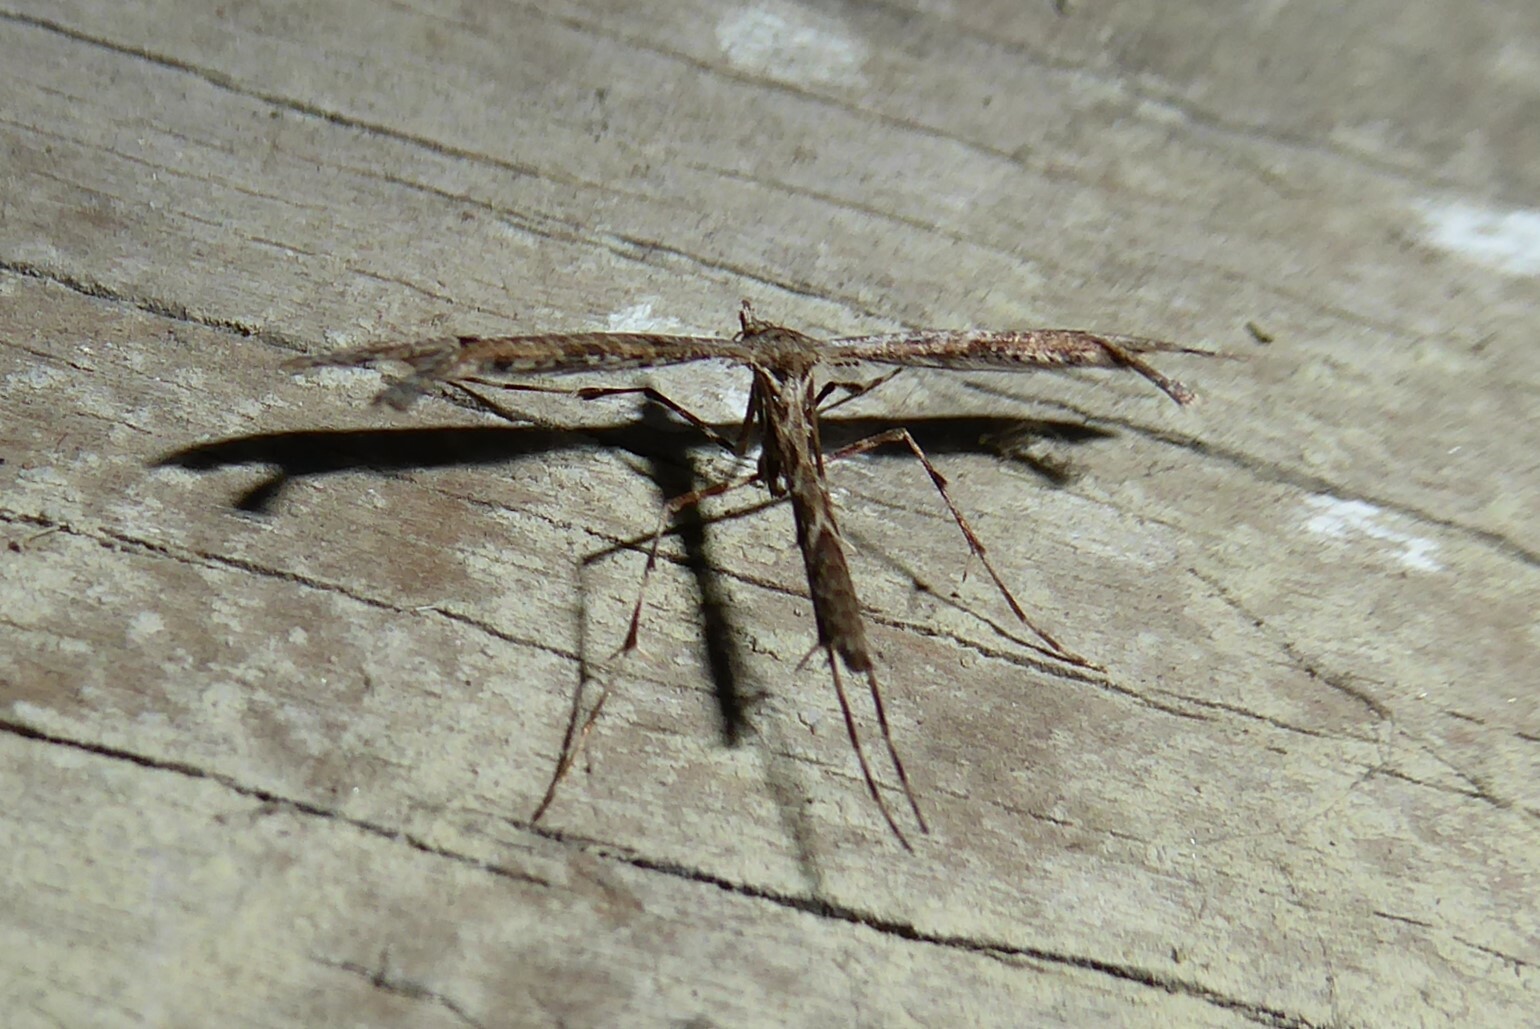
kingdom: Animalia
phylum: Arthropoda
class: Insecta
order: Lepidoptera
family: Pterophoridae
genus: Amblyptilia
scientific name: Amblyptilia repletalis
